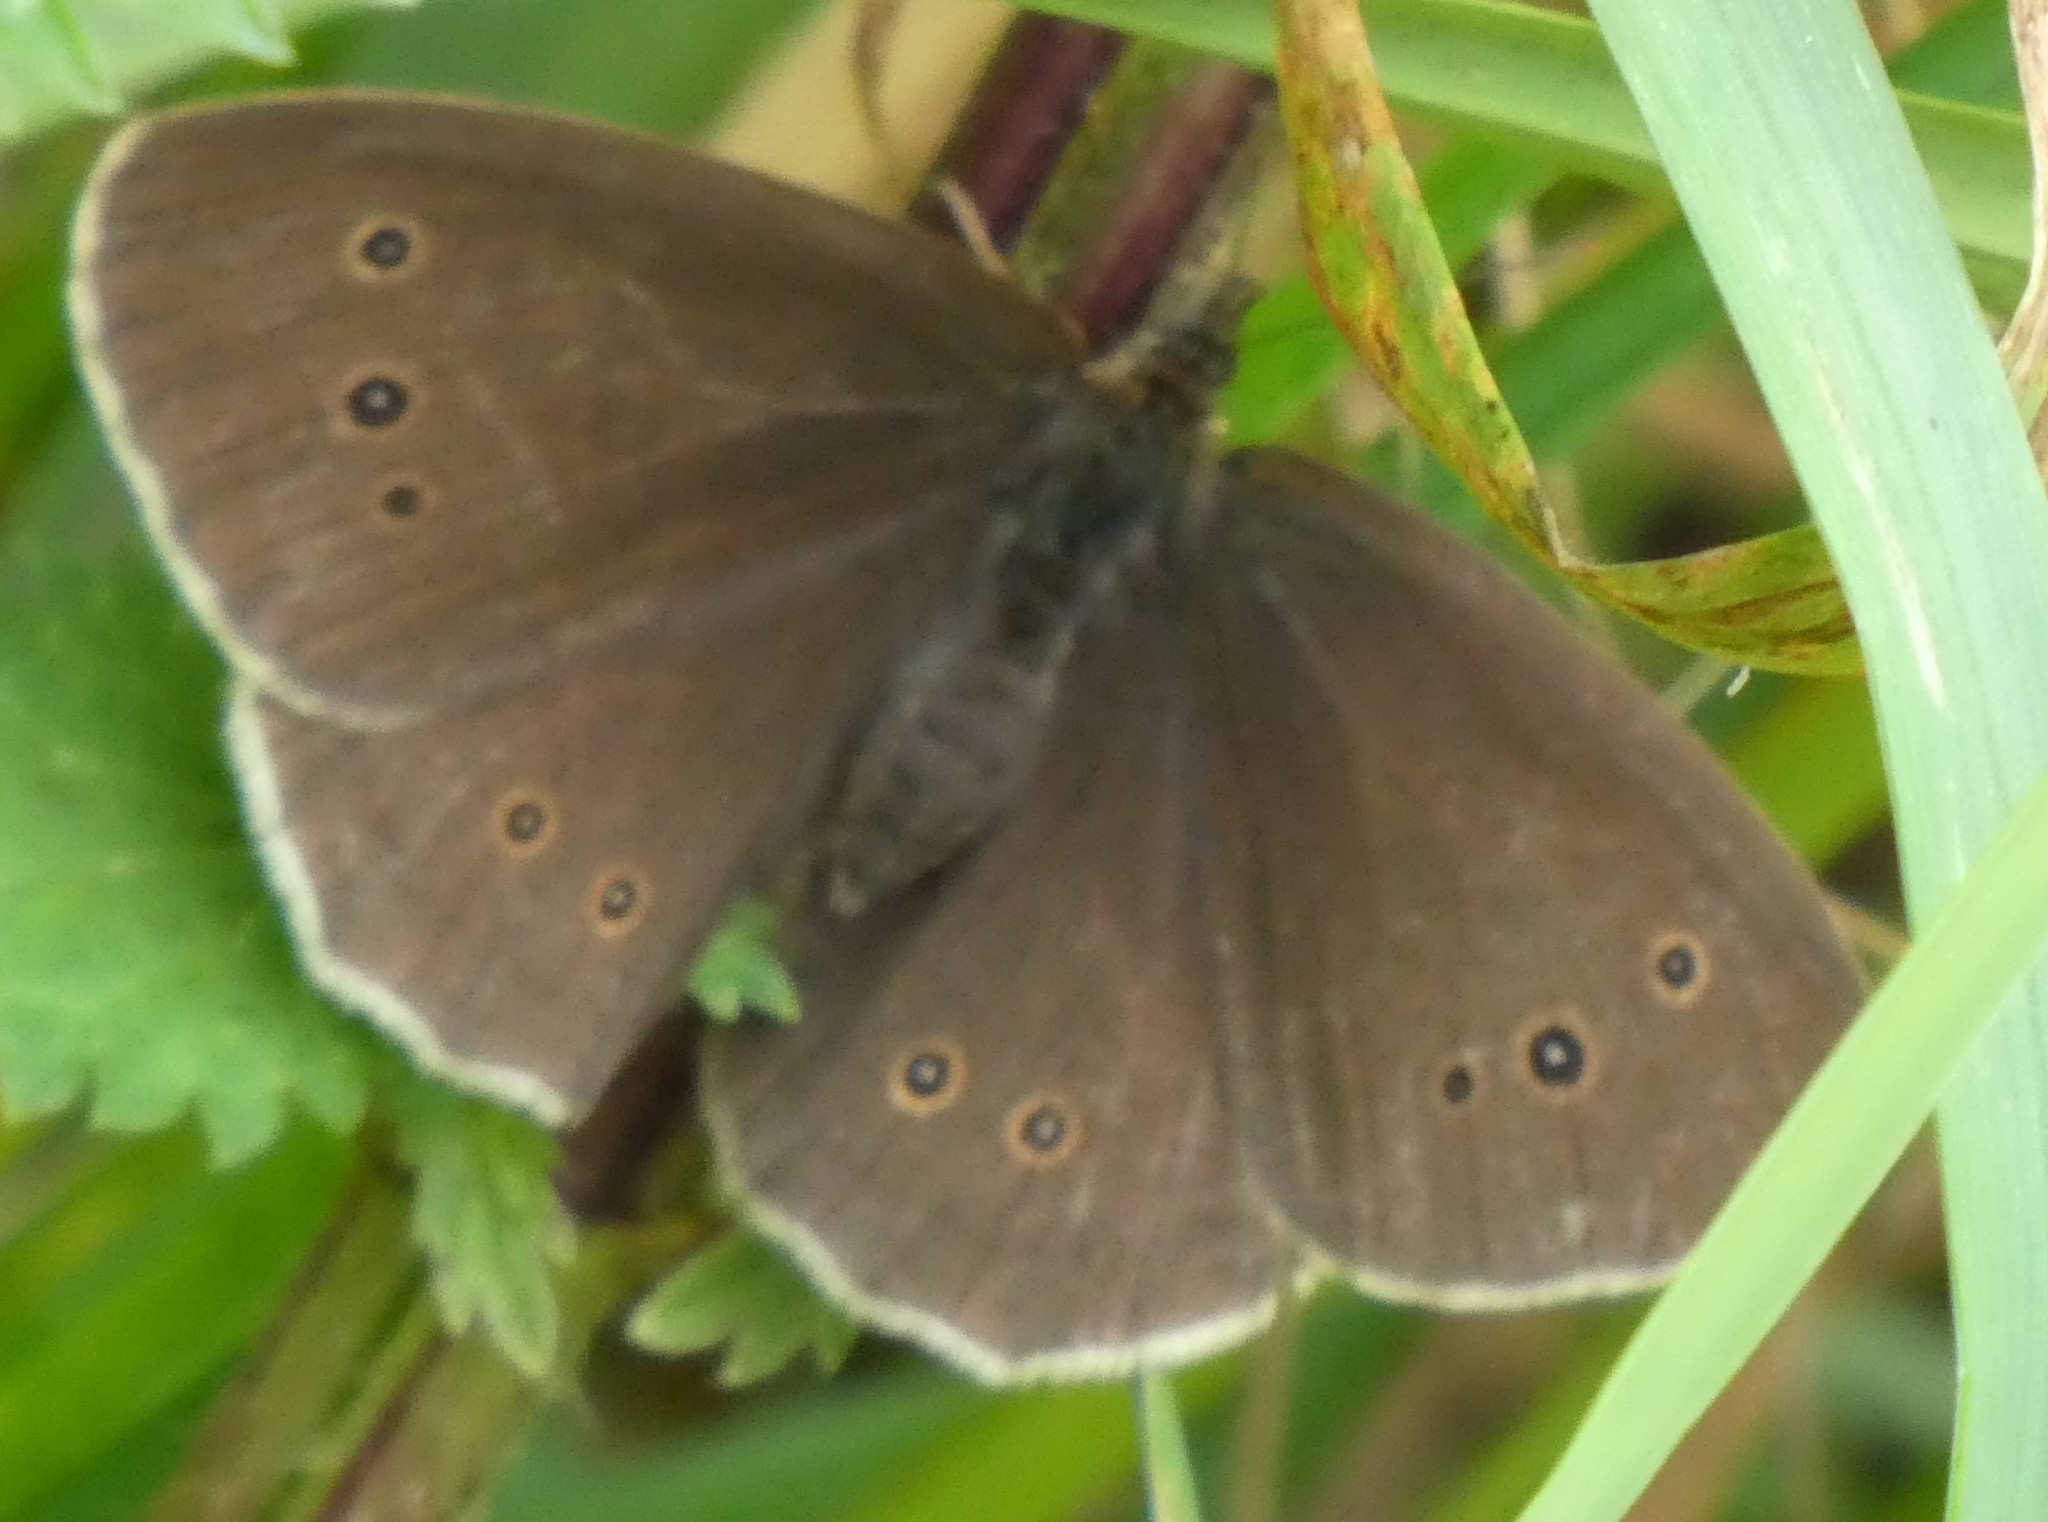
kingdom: Animalia
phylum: Arthropoda
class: Insecta
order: Lepidoptera
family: Nymphalidae
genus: Aphantopus
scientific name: Aphantopus hyperantus
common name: Ringlet
